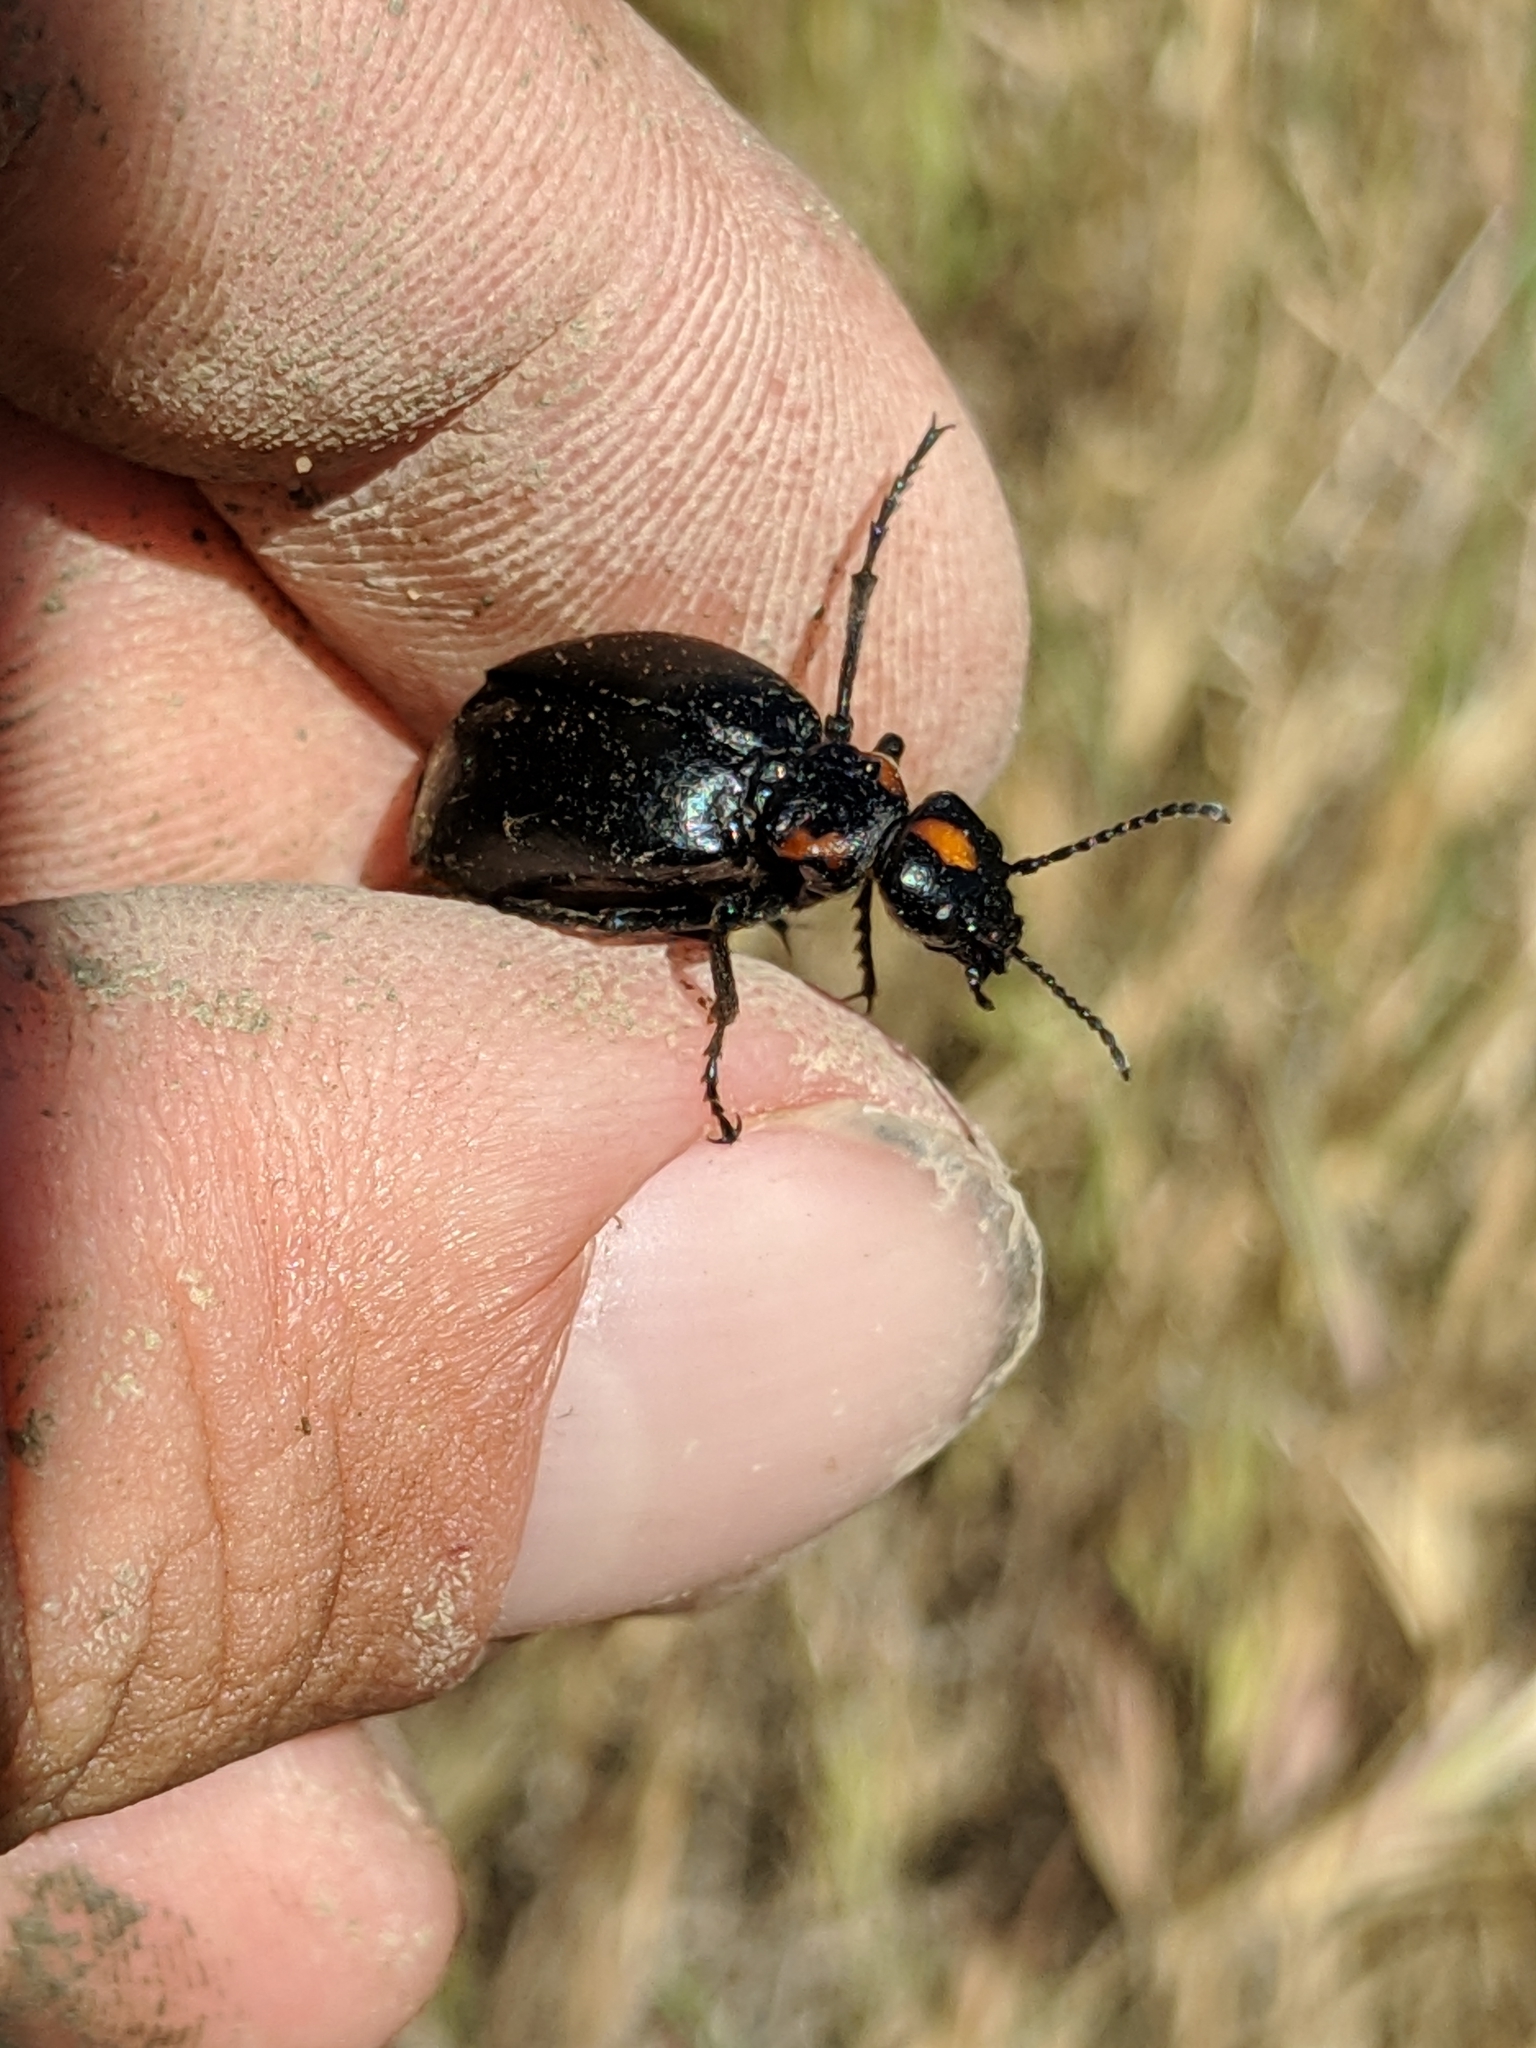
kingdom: Animalia
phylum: Arthropoda
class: Insecta
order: Coleoptera
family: Meloidae
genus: Lytta
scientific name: Lytta sublaevis
